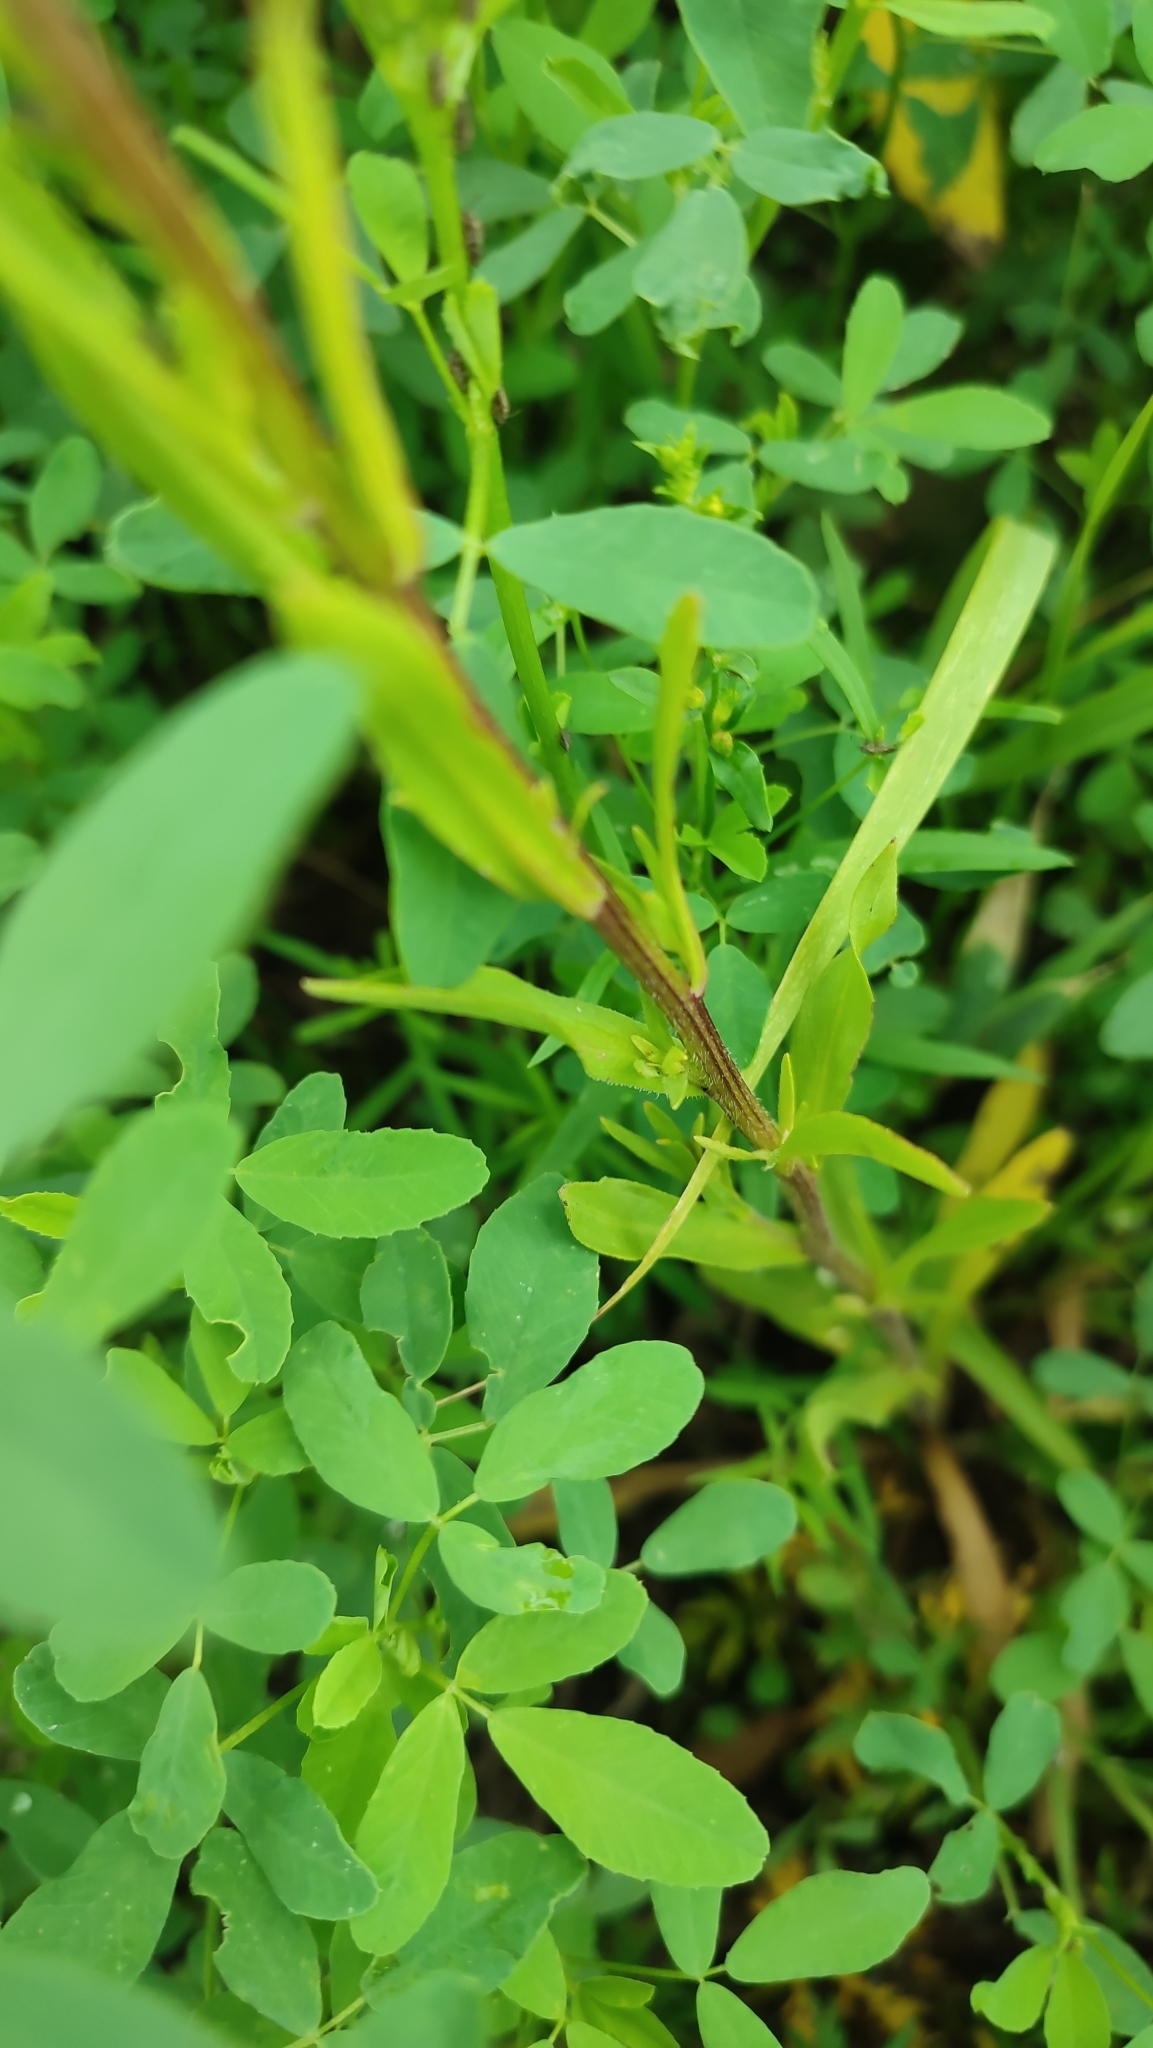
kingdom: Plantae
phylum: Tracheophyta
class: Magnoliopsida
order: Asterales
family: Asteraceae
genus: Erigeron
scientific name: Erigeron acris
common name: Blue fleabane
